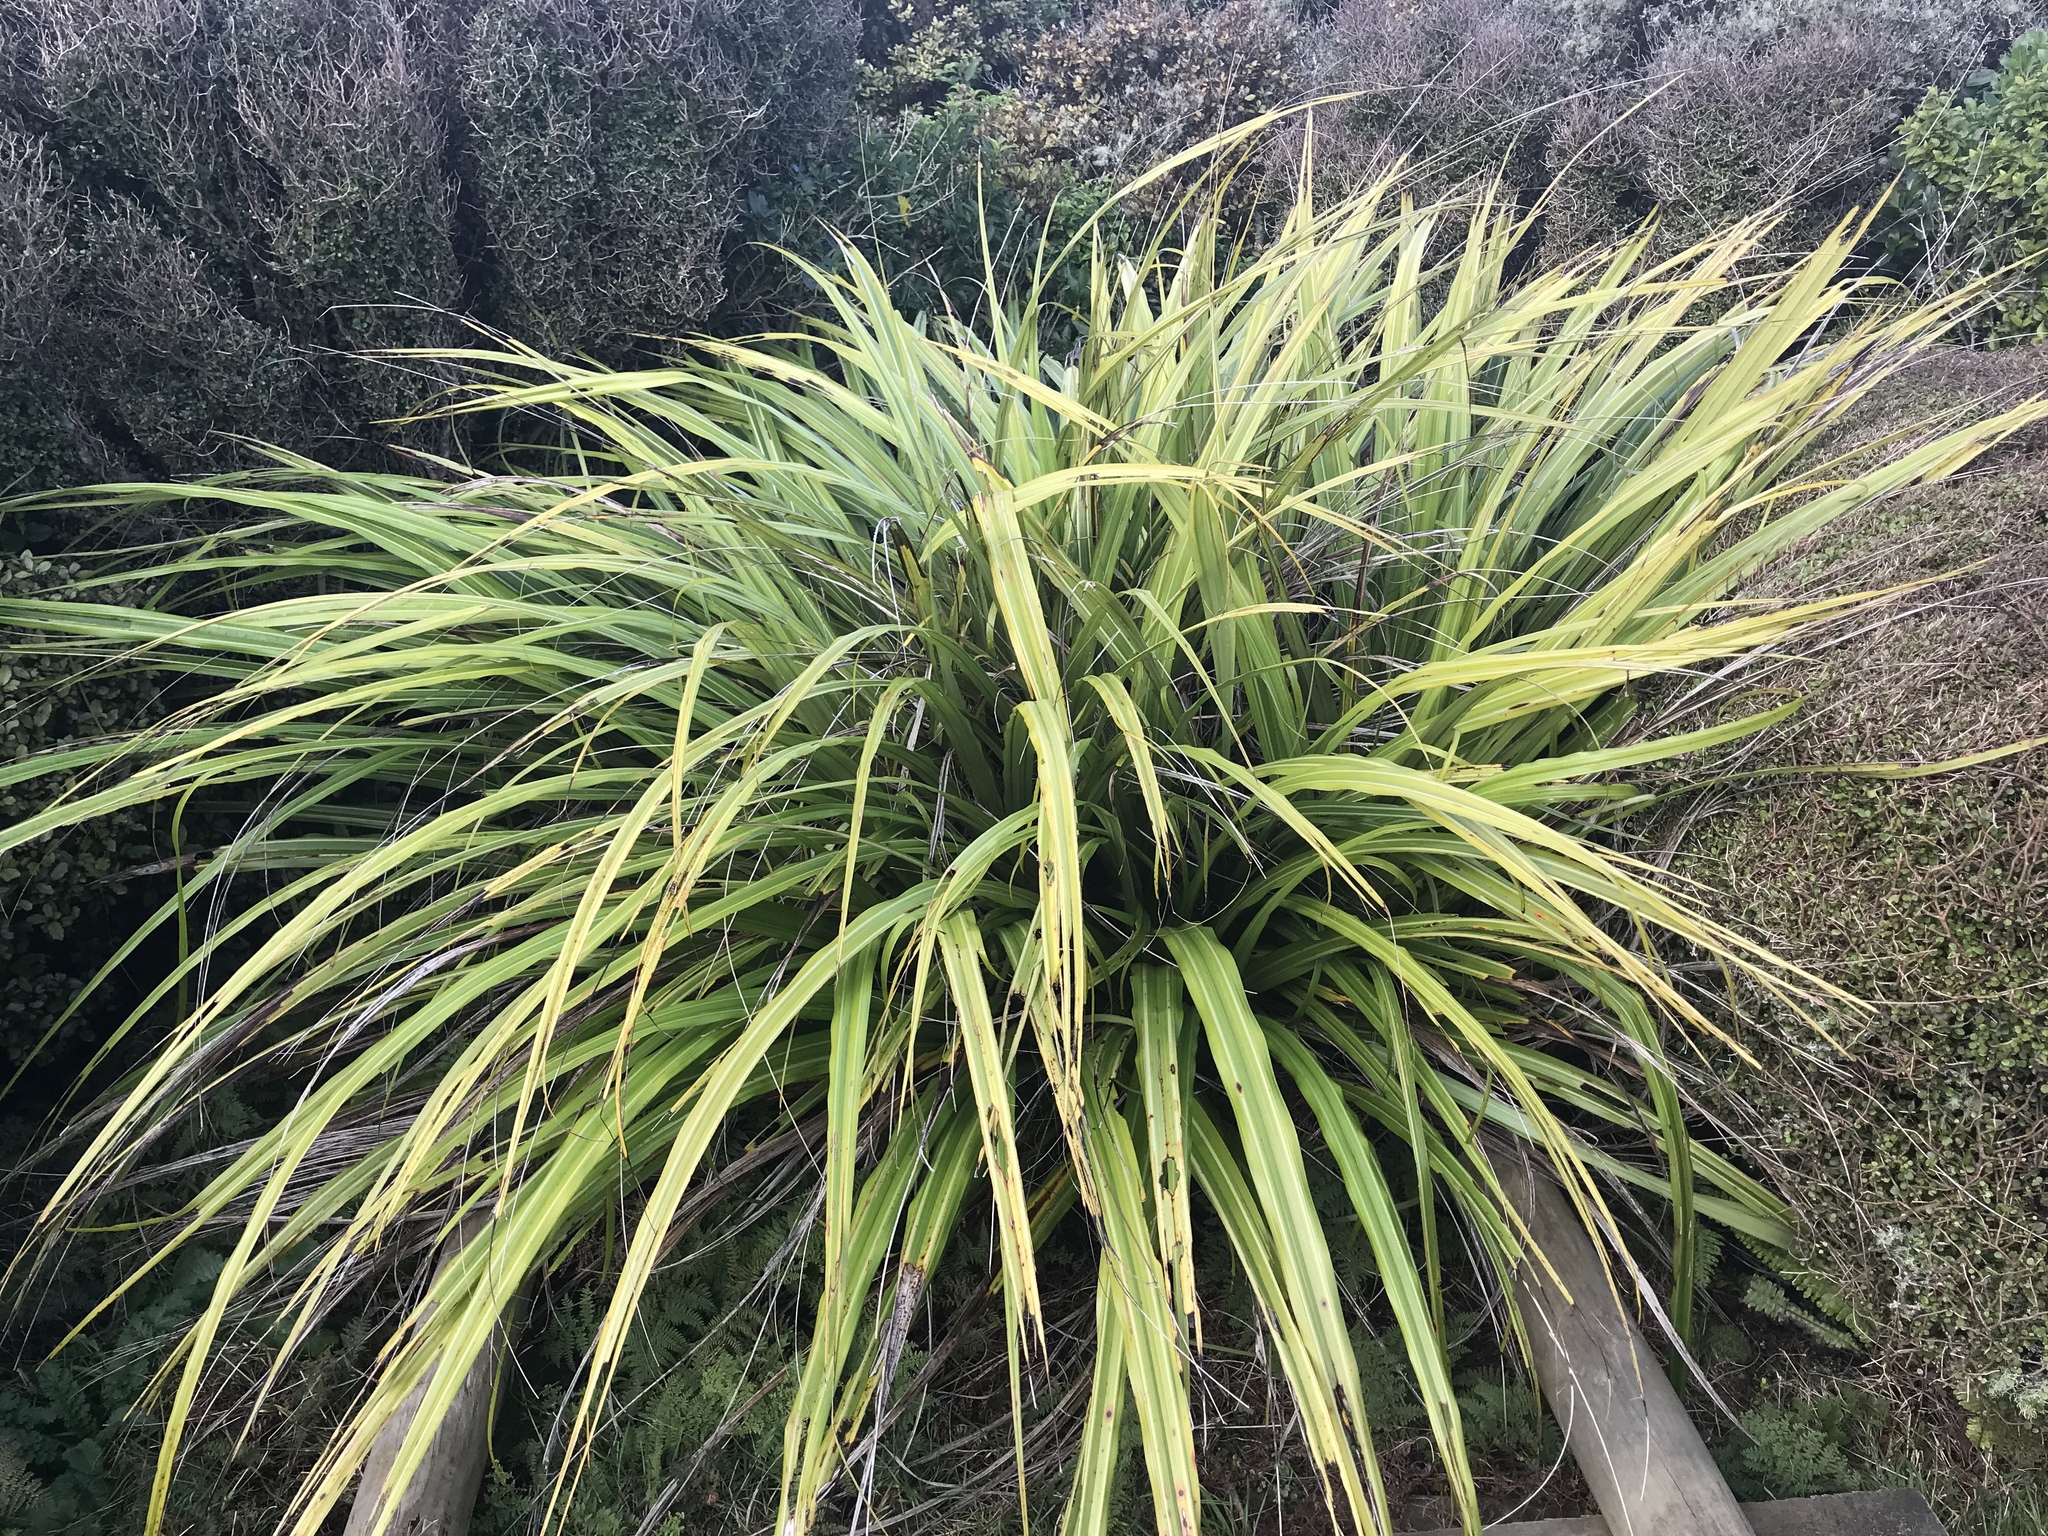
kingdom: Plantae
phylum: Tracheophyta
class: Liliopsida
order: Asparagales
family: Asteliaceae
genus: Astelia
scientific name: Astelia fragrans
